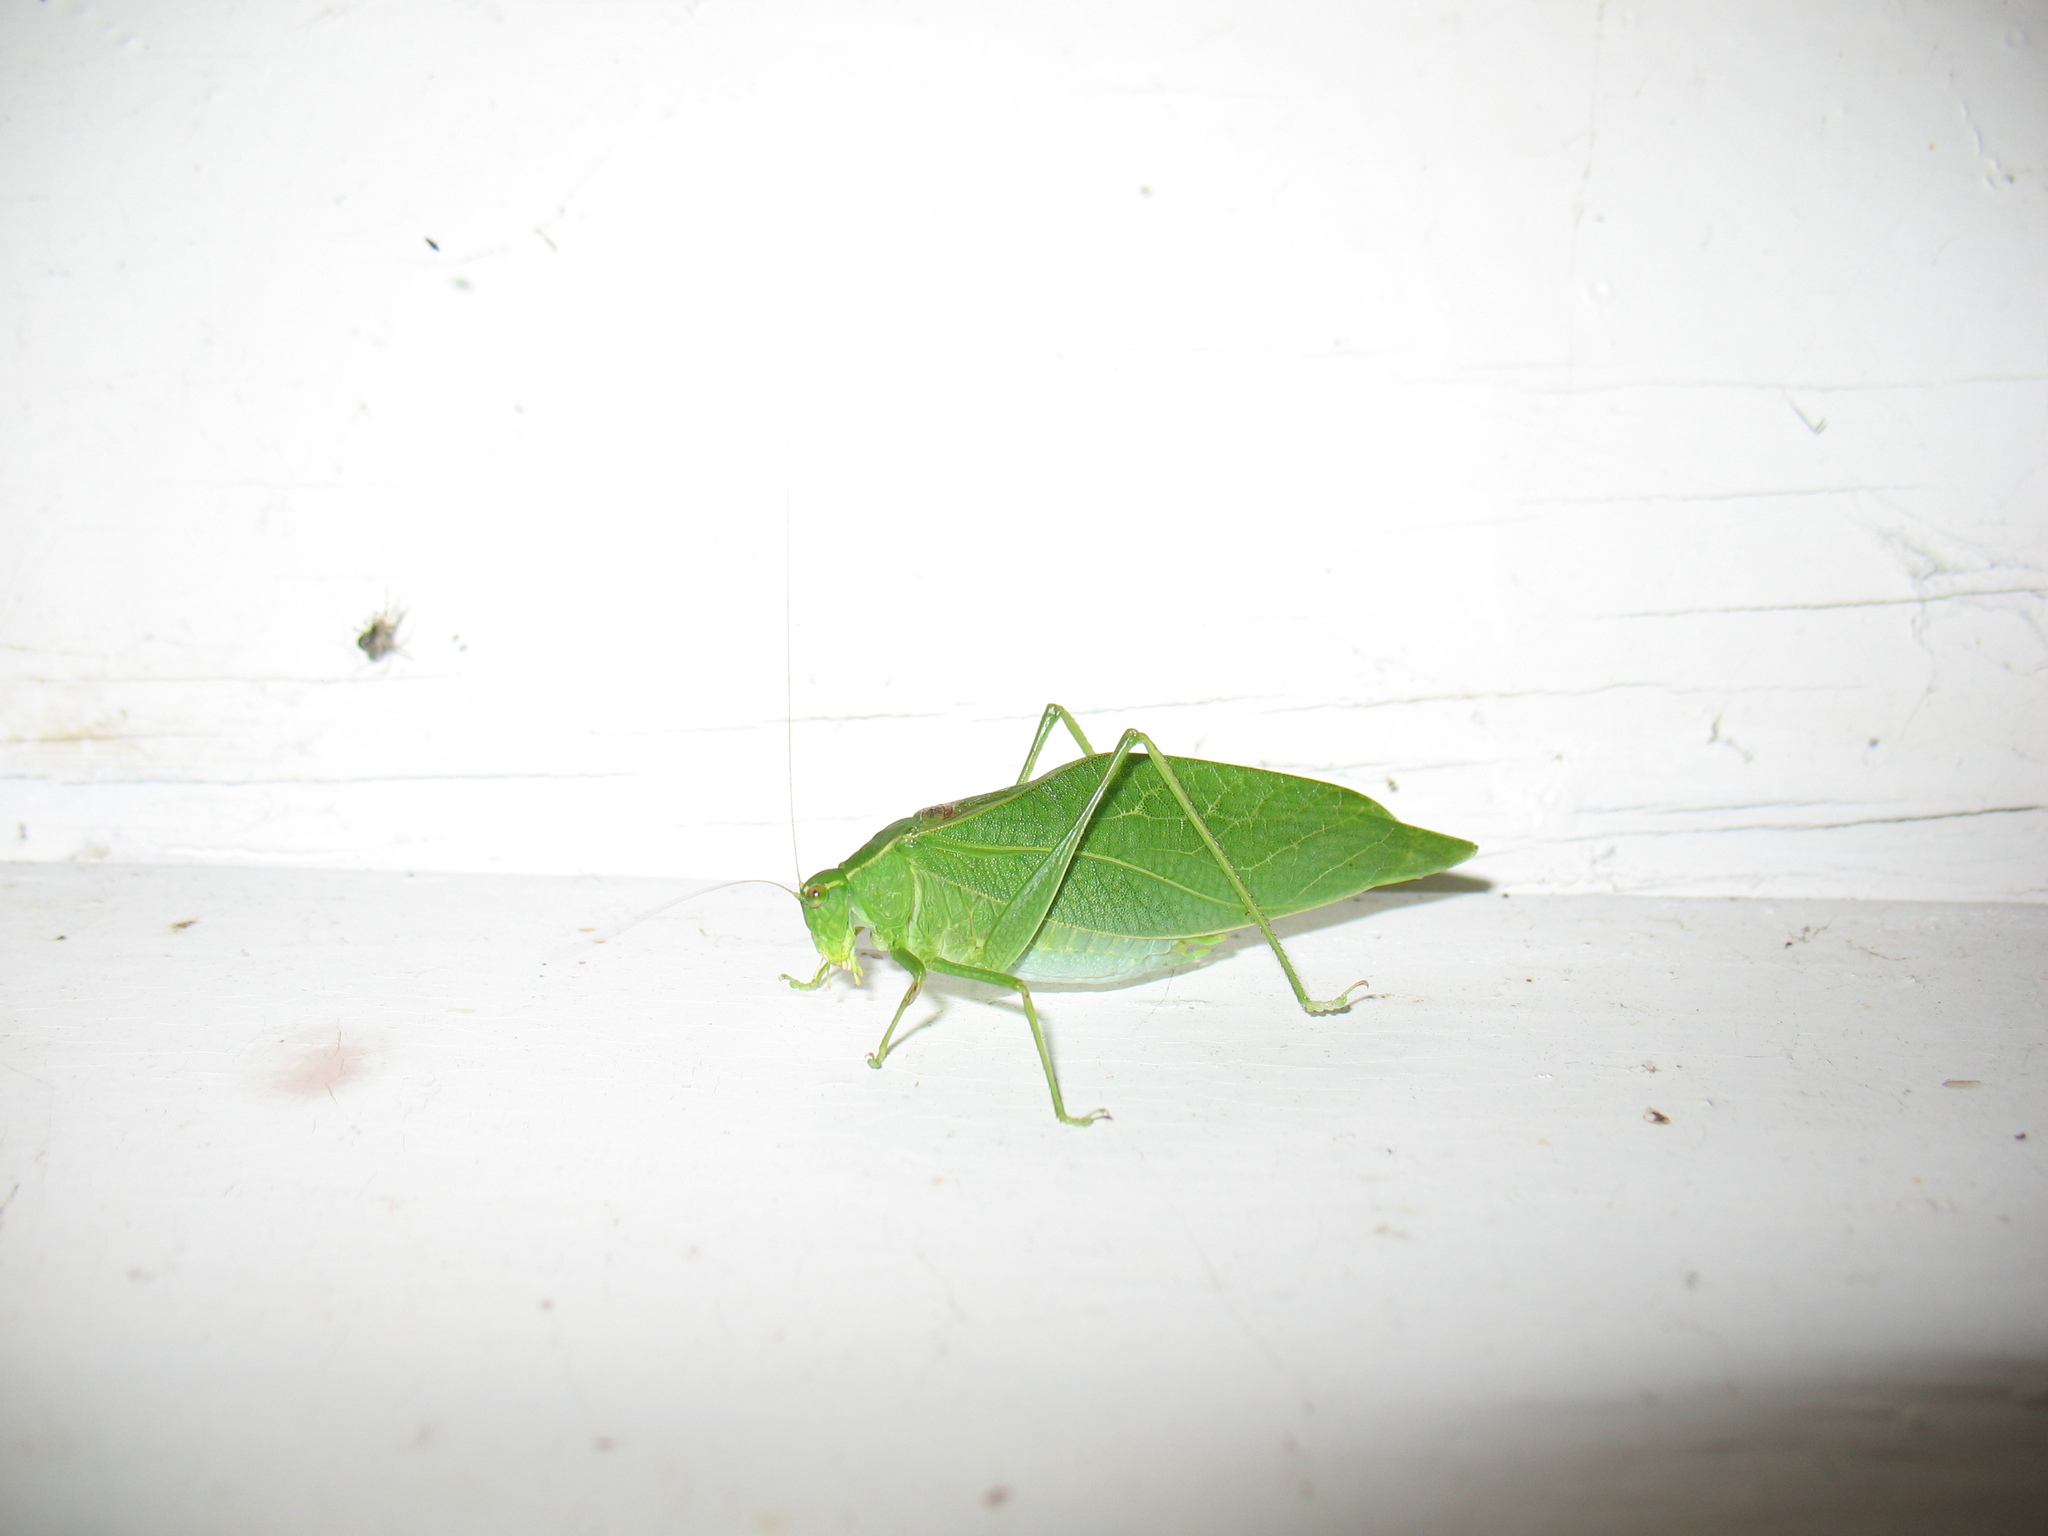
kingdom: Animalia
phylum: Arthropoda
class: Insecta
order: Orthoptera
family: Tettigoniidae
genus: Microcentrum
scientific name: Microcentrum retinerve
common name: Angular-winged katydid
